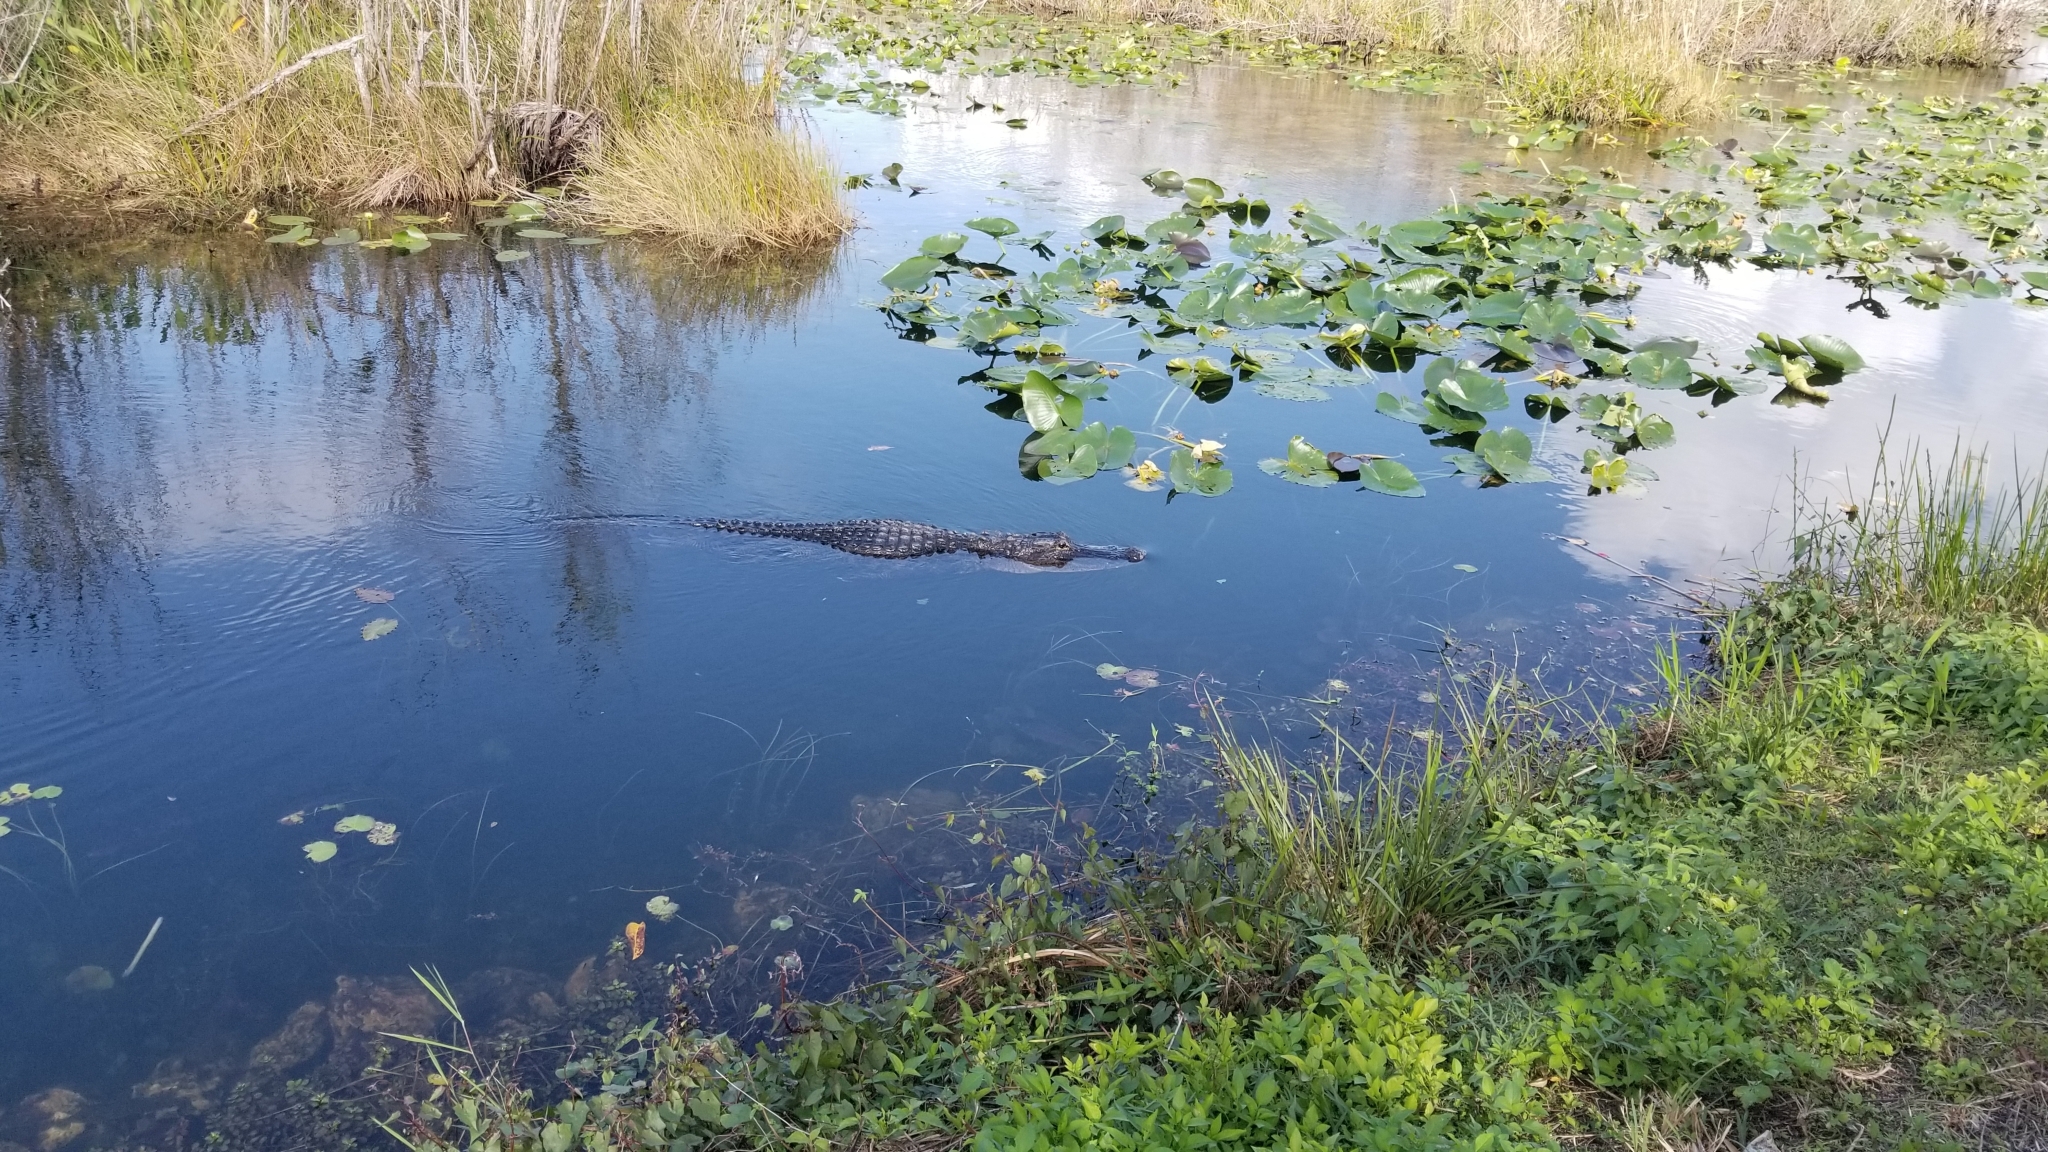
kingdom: Animalia
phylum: Chordata
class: Crocodylia
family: Alligatoridae
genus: Alligator
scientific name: Alligator mississippiensis
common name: American alligator
